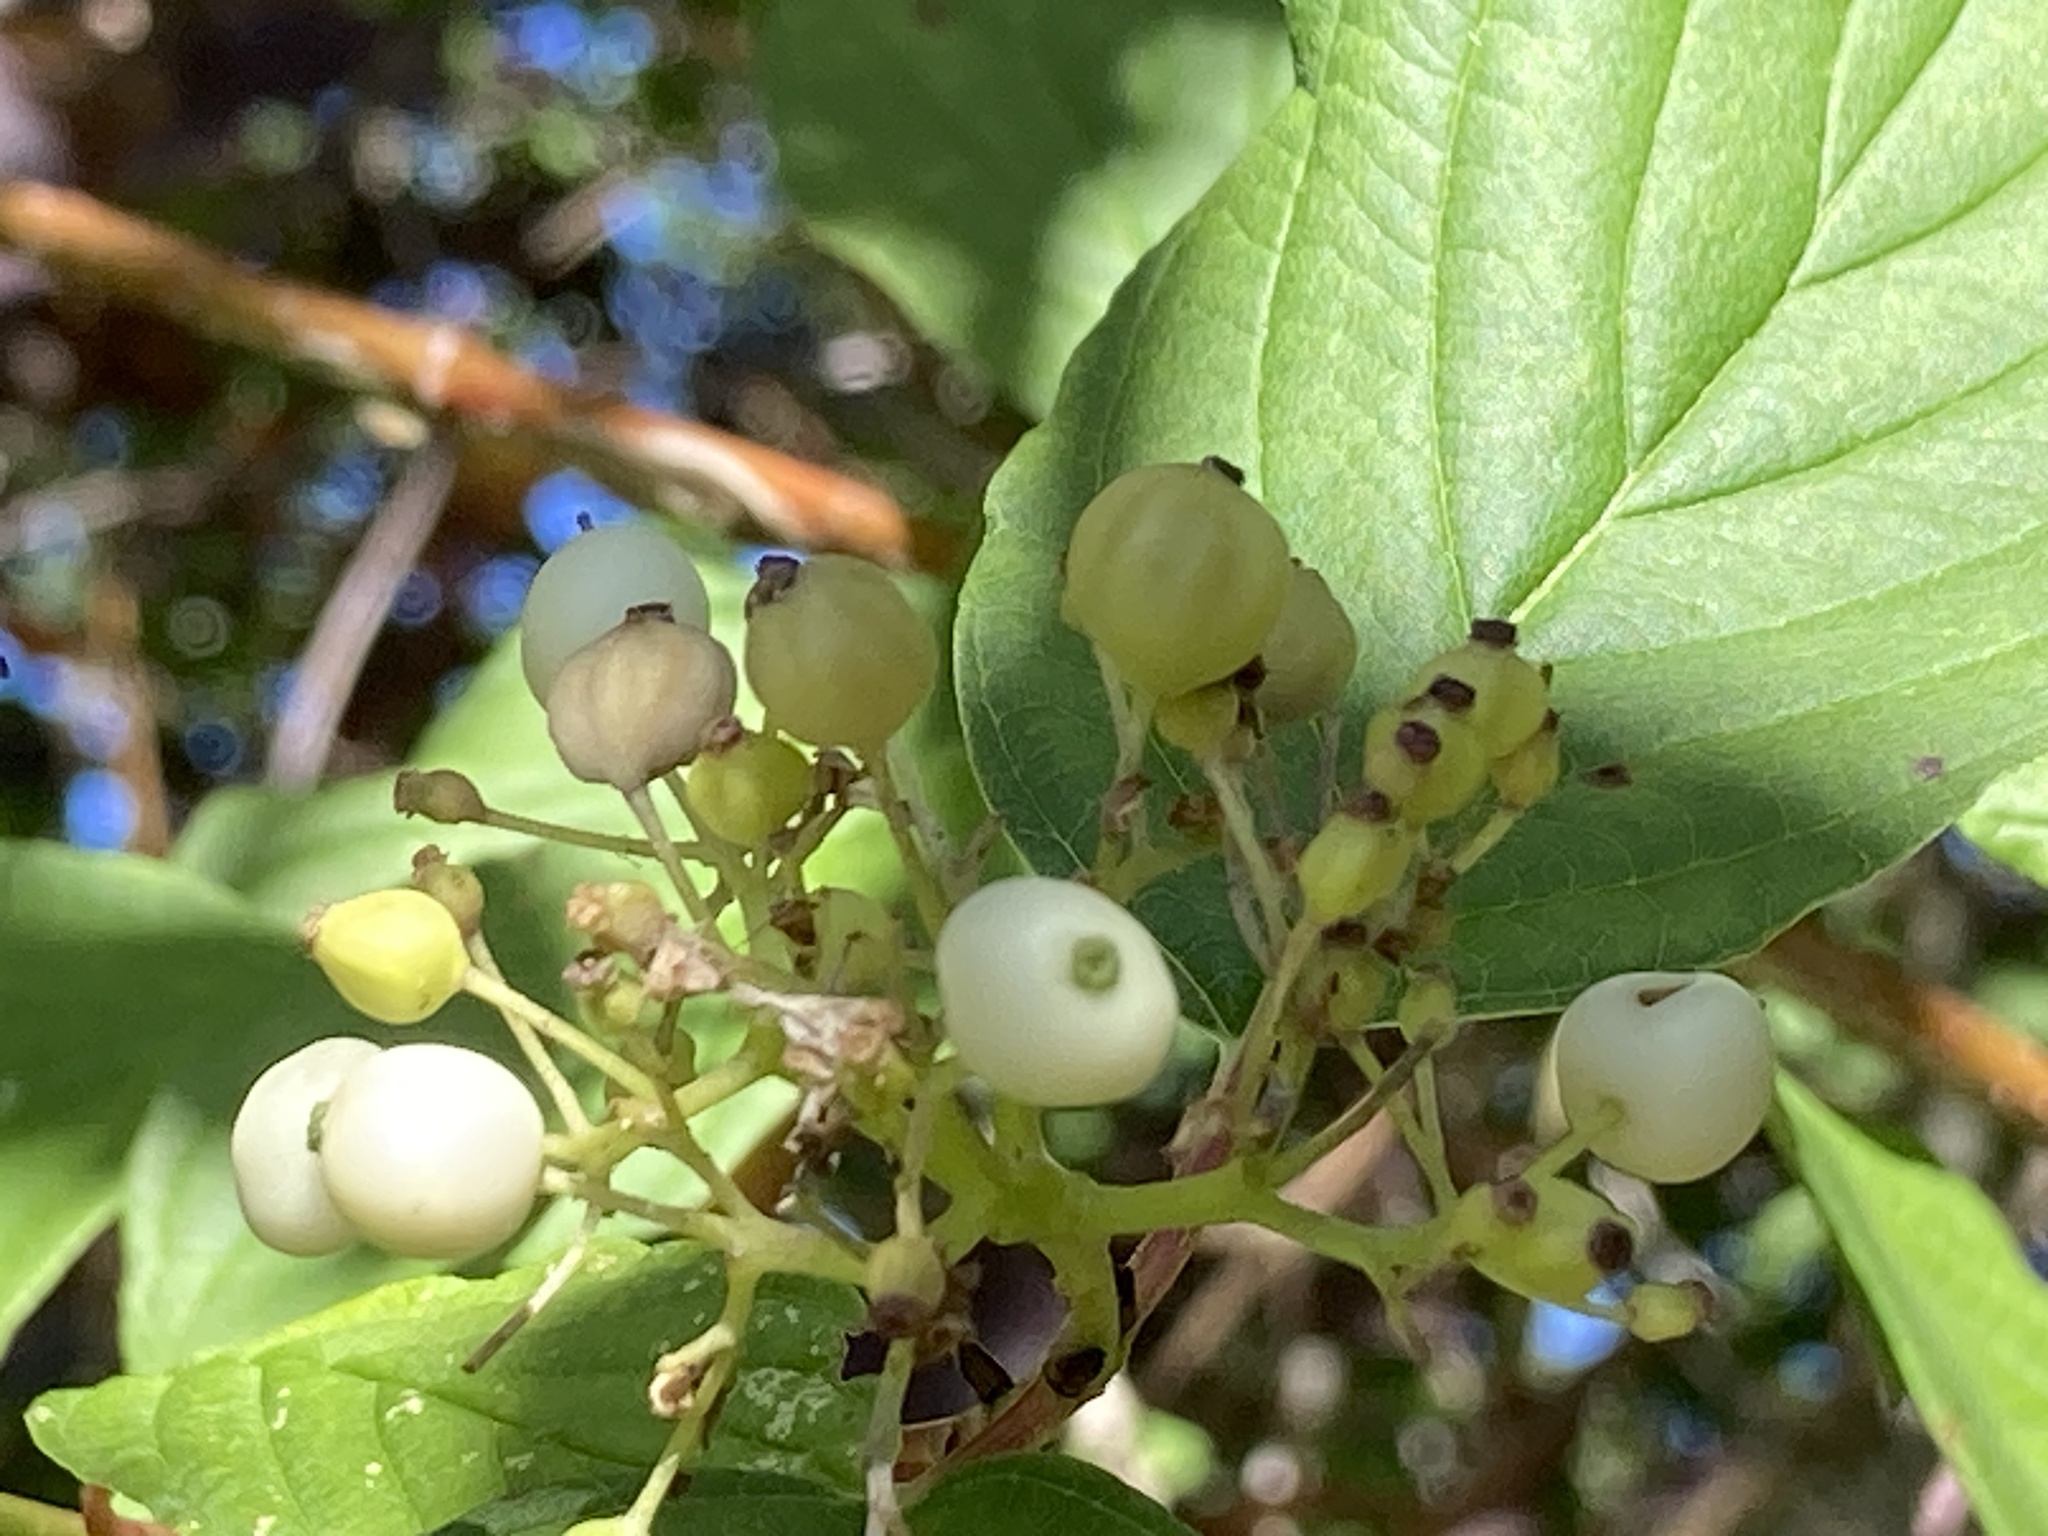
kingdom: Plantae
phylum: Tracheophyta
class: Magnoliopsida
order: Cornales
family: Cornaceae
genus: Cornus
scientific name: Cornus sericea
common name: Red-osier dogwood
